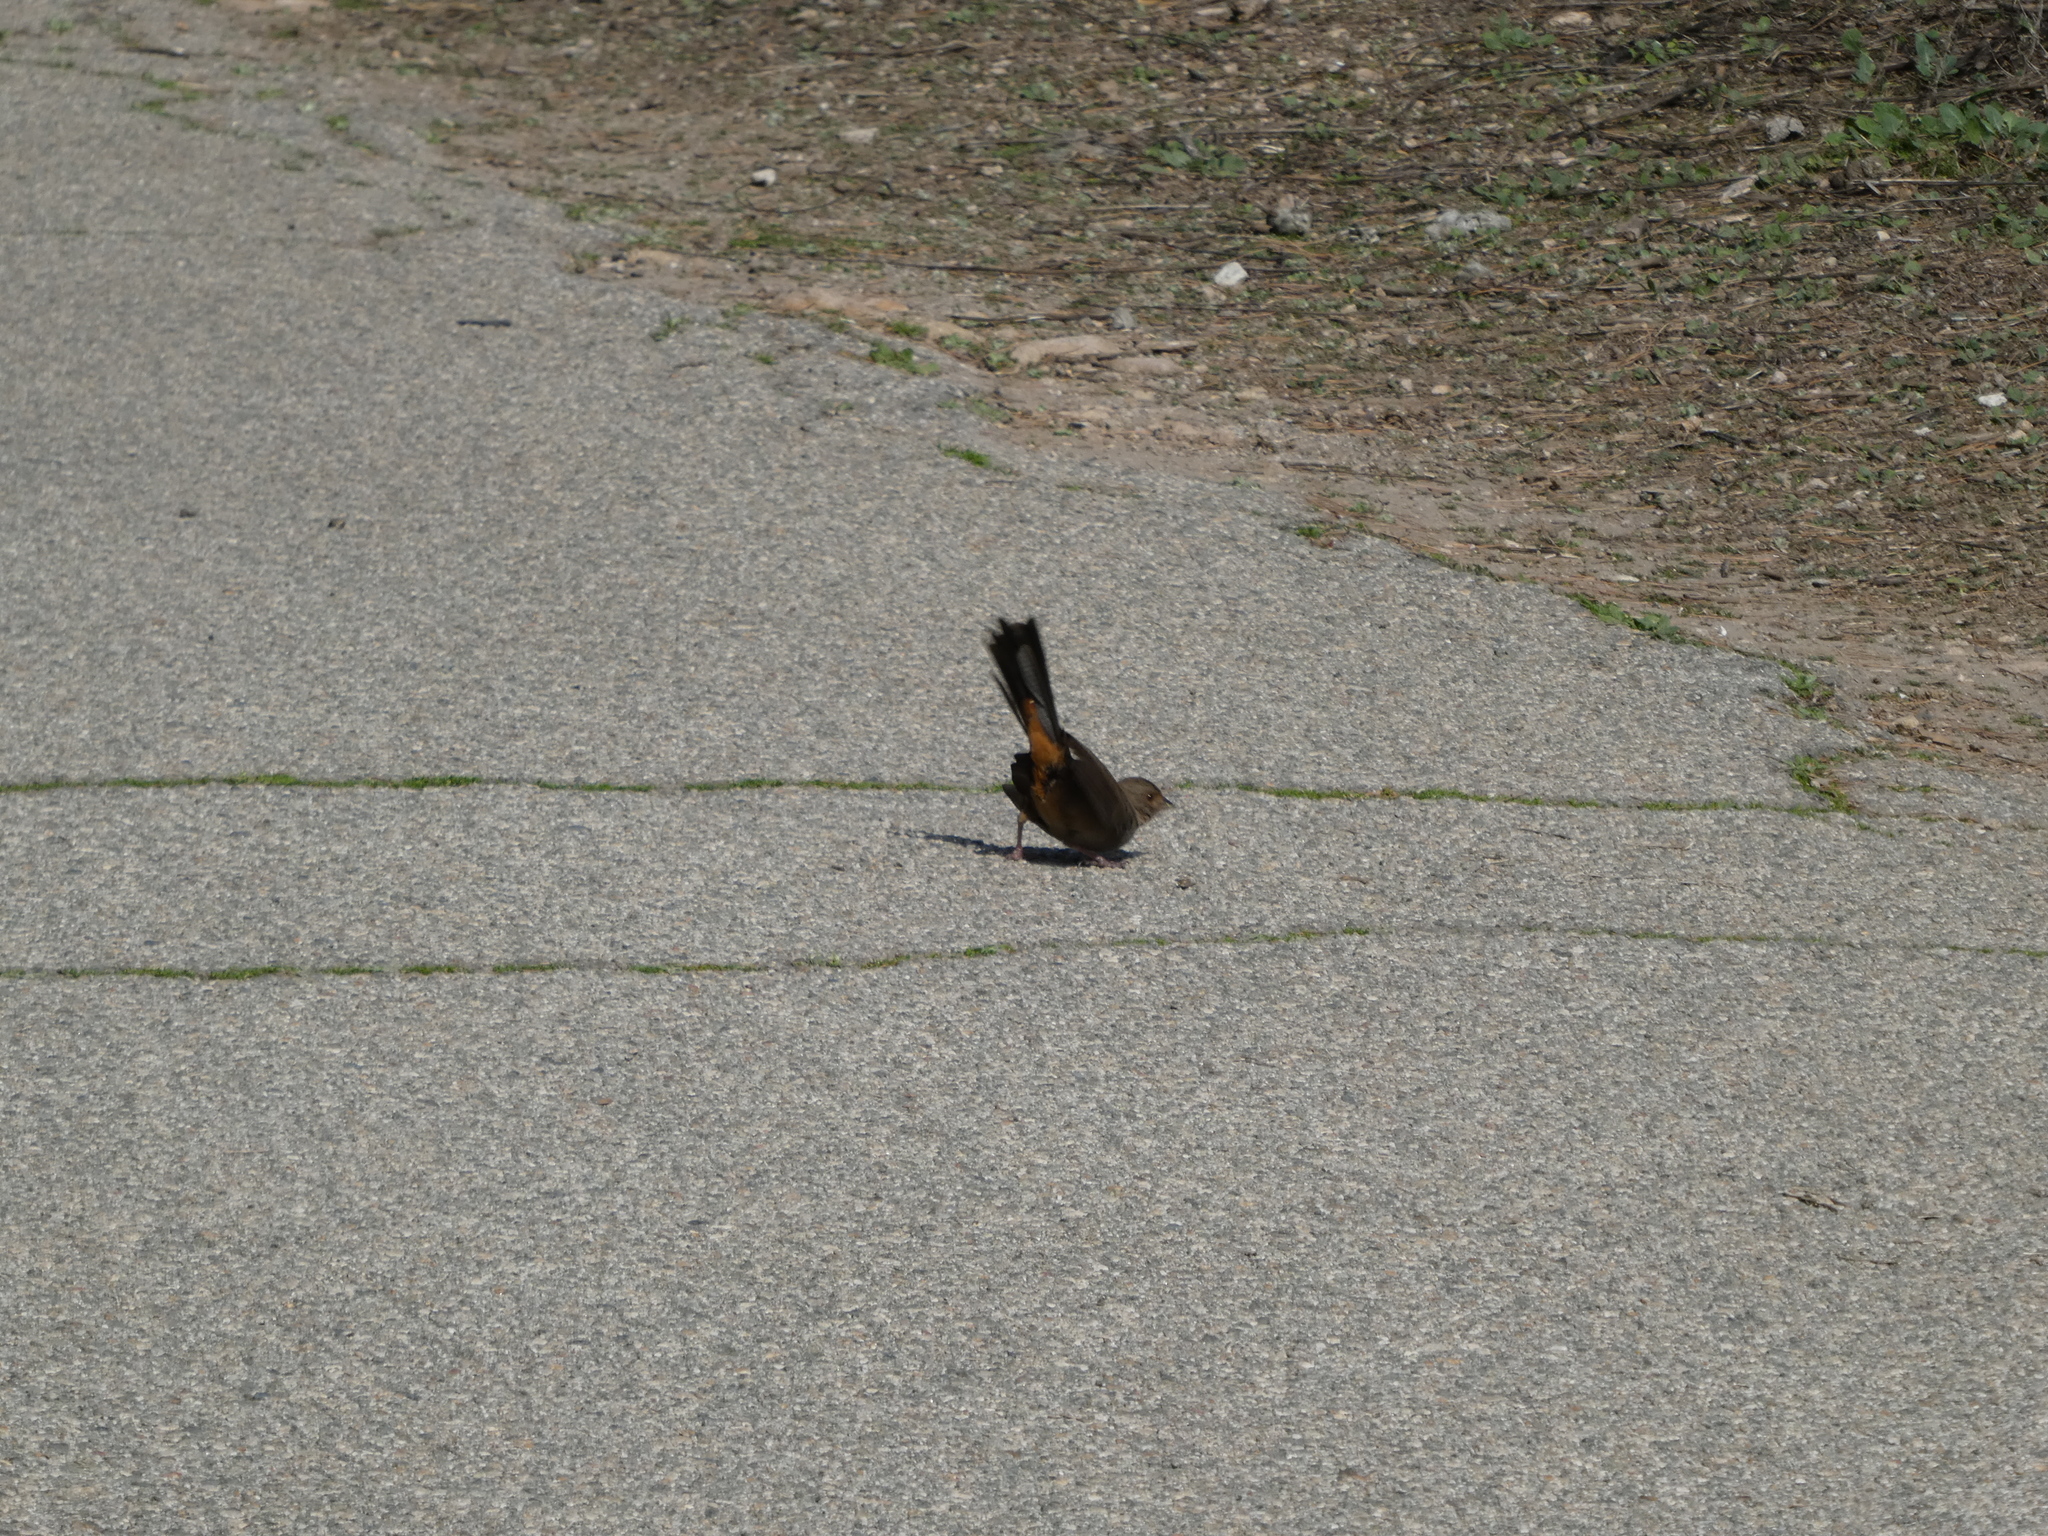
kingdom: Animalia
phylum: Chordata
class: Aves
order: Passeriformes
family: Passerellidae
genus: Melozone
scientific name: Melozone crissalis
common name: California towhee
